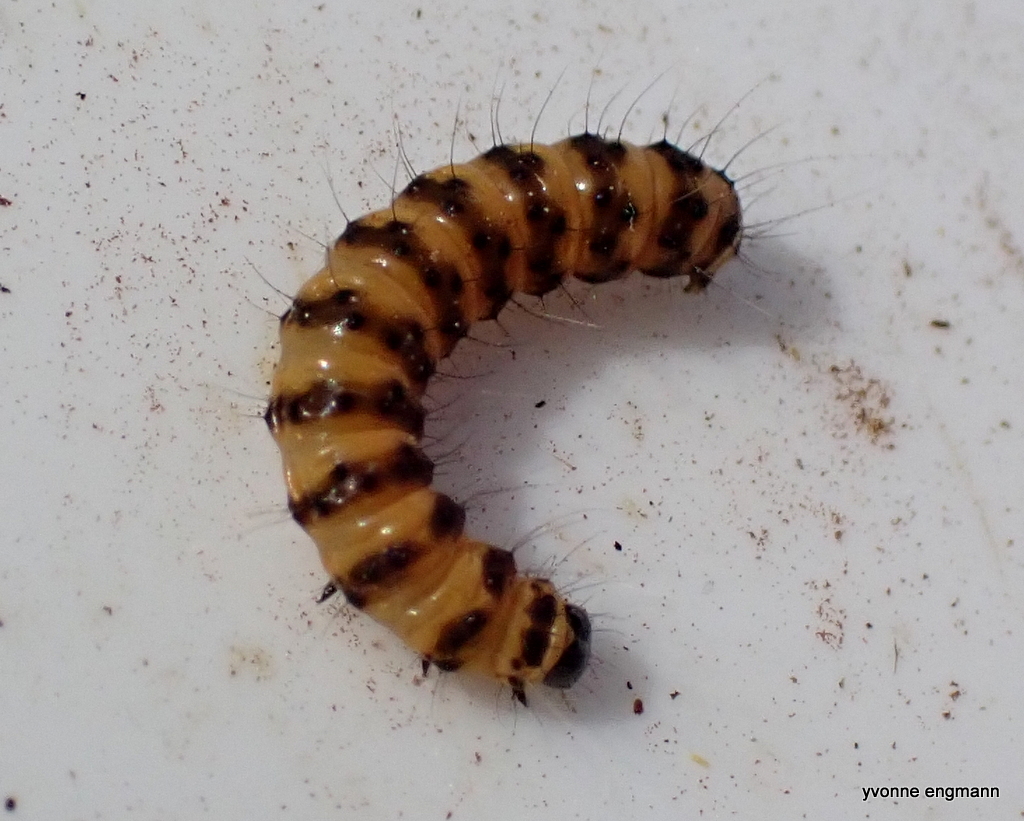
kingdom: Animalia
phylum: Arthropoda
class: Insecta
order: Lepidoptera
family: Erebidae
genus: Tyria
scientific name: Tyria jacobaeae
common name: Cinnabar
